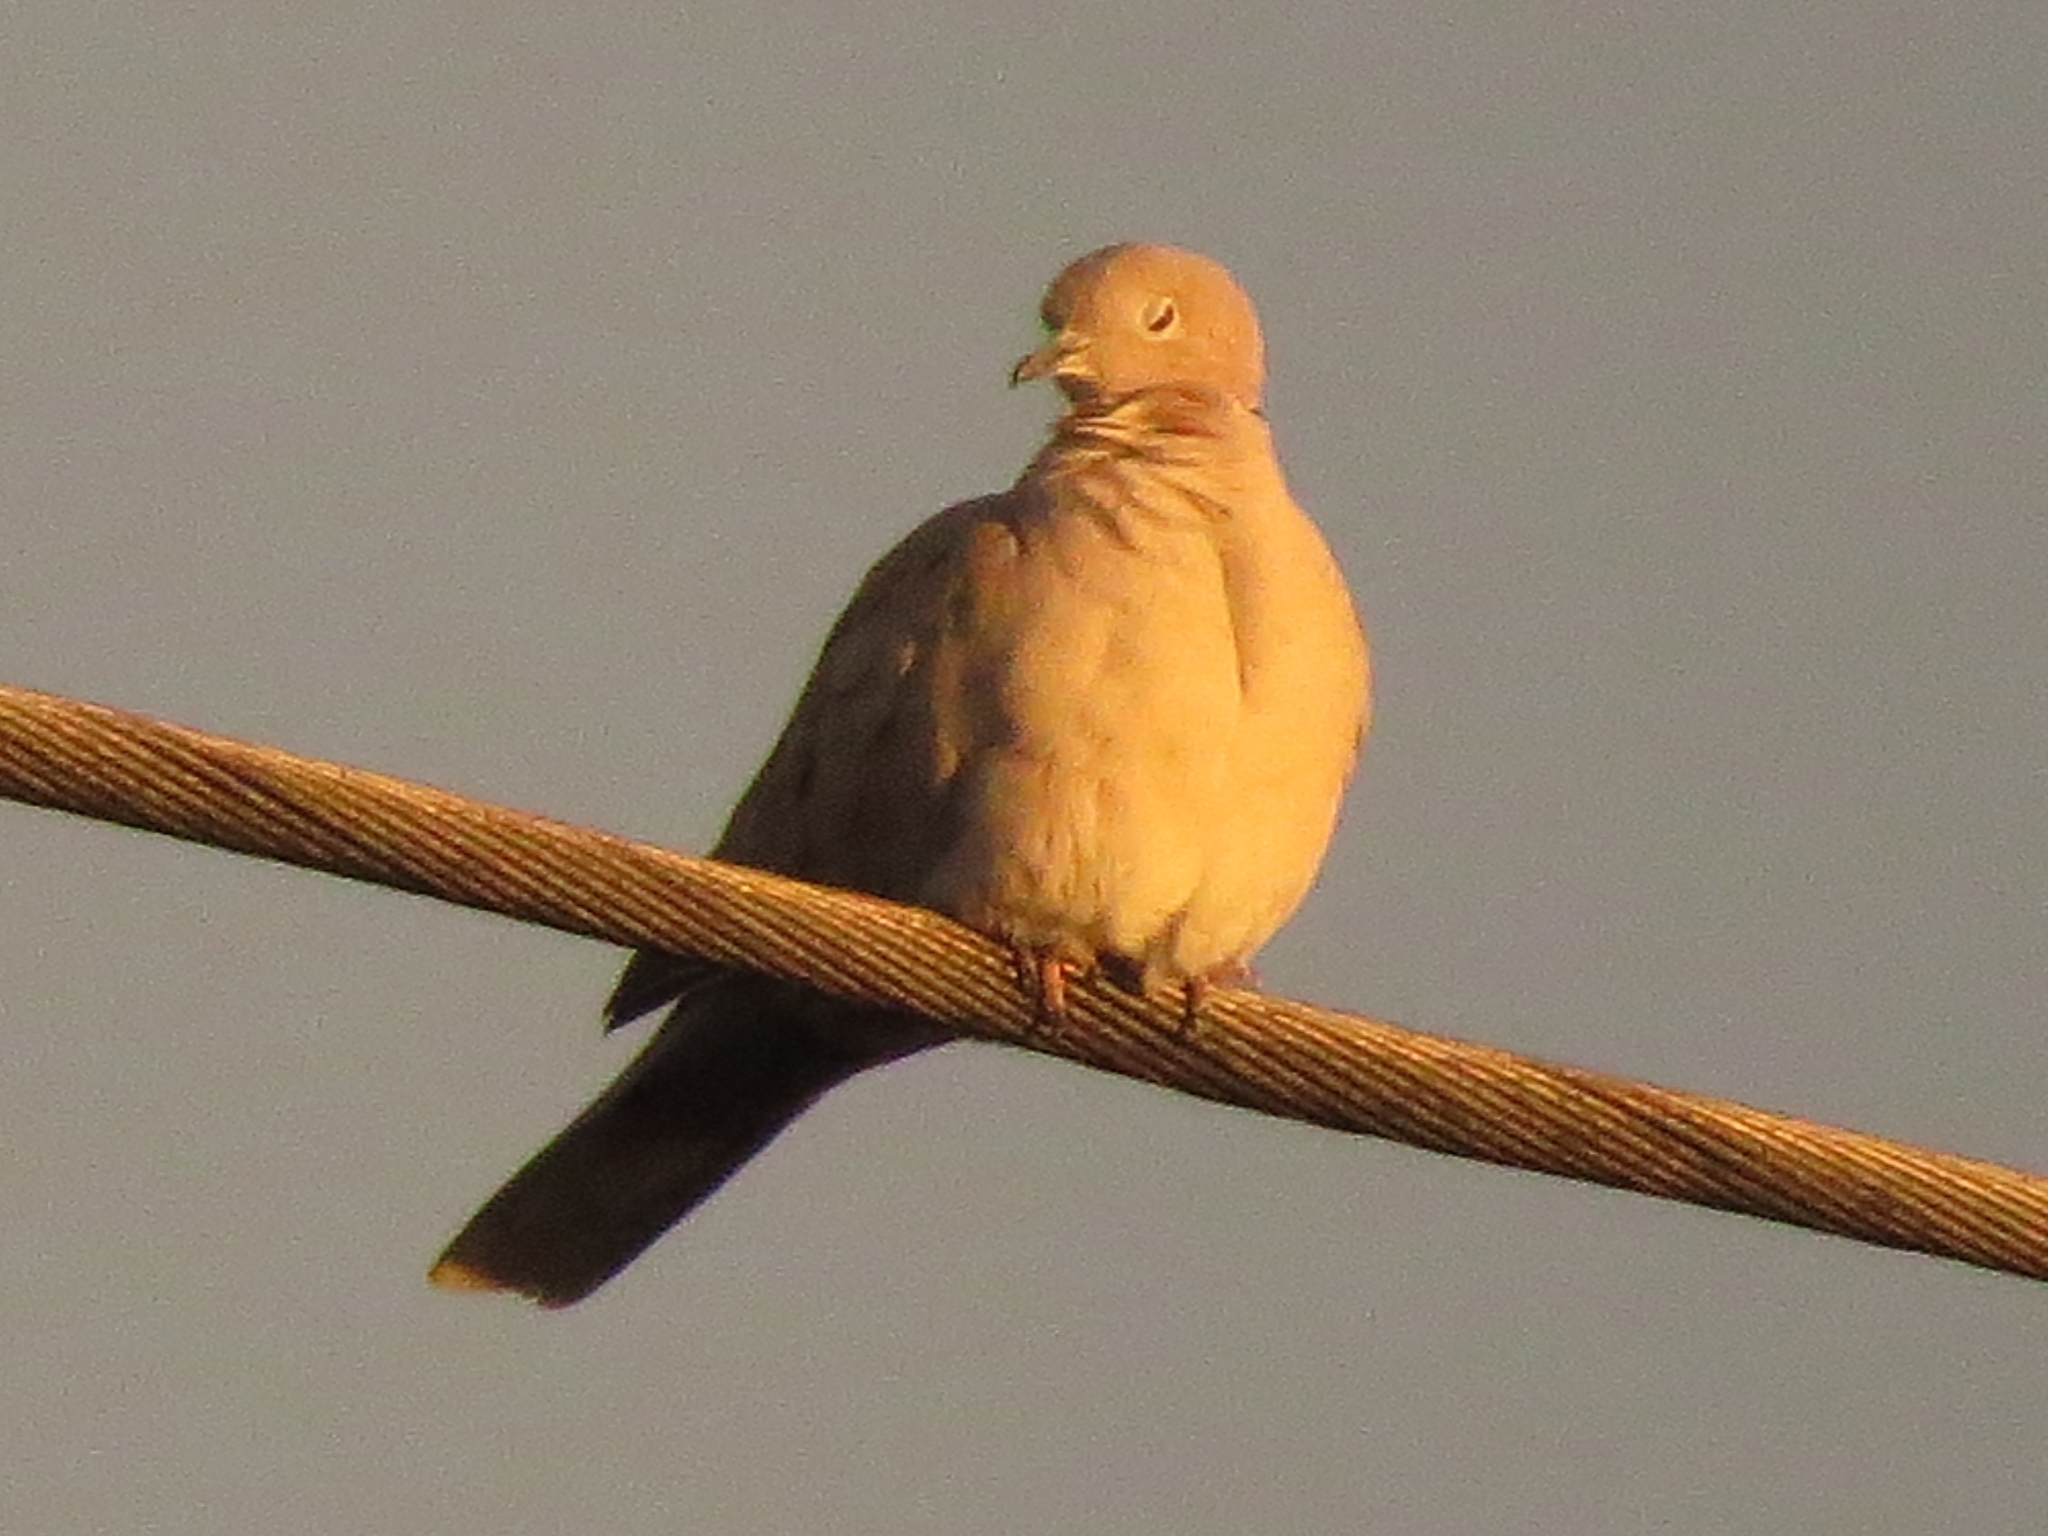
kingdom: Animalia
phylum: Chordata
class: Aves
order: Columbiformes
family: Columbidae
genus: Streptopelia
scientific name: Streptopelia decaocto
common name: Eurasian collared dove
